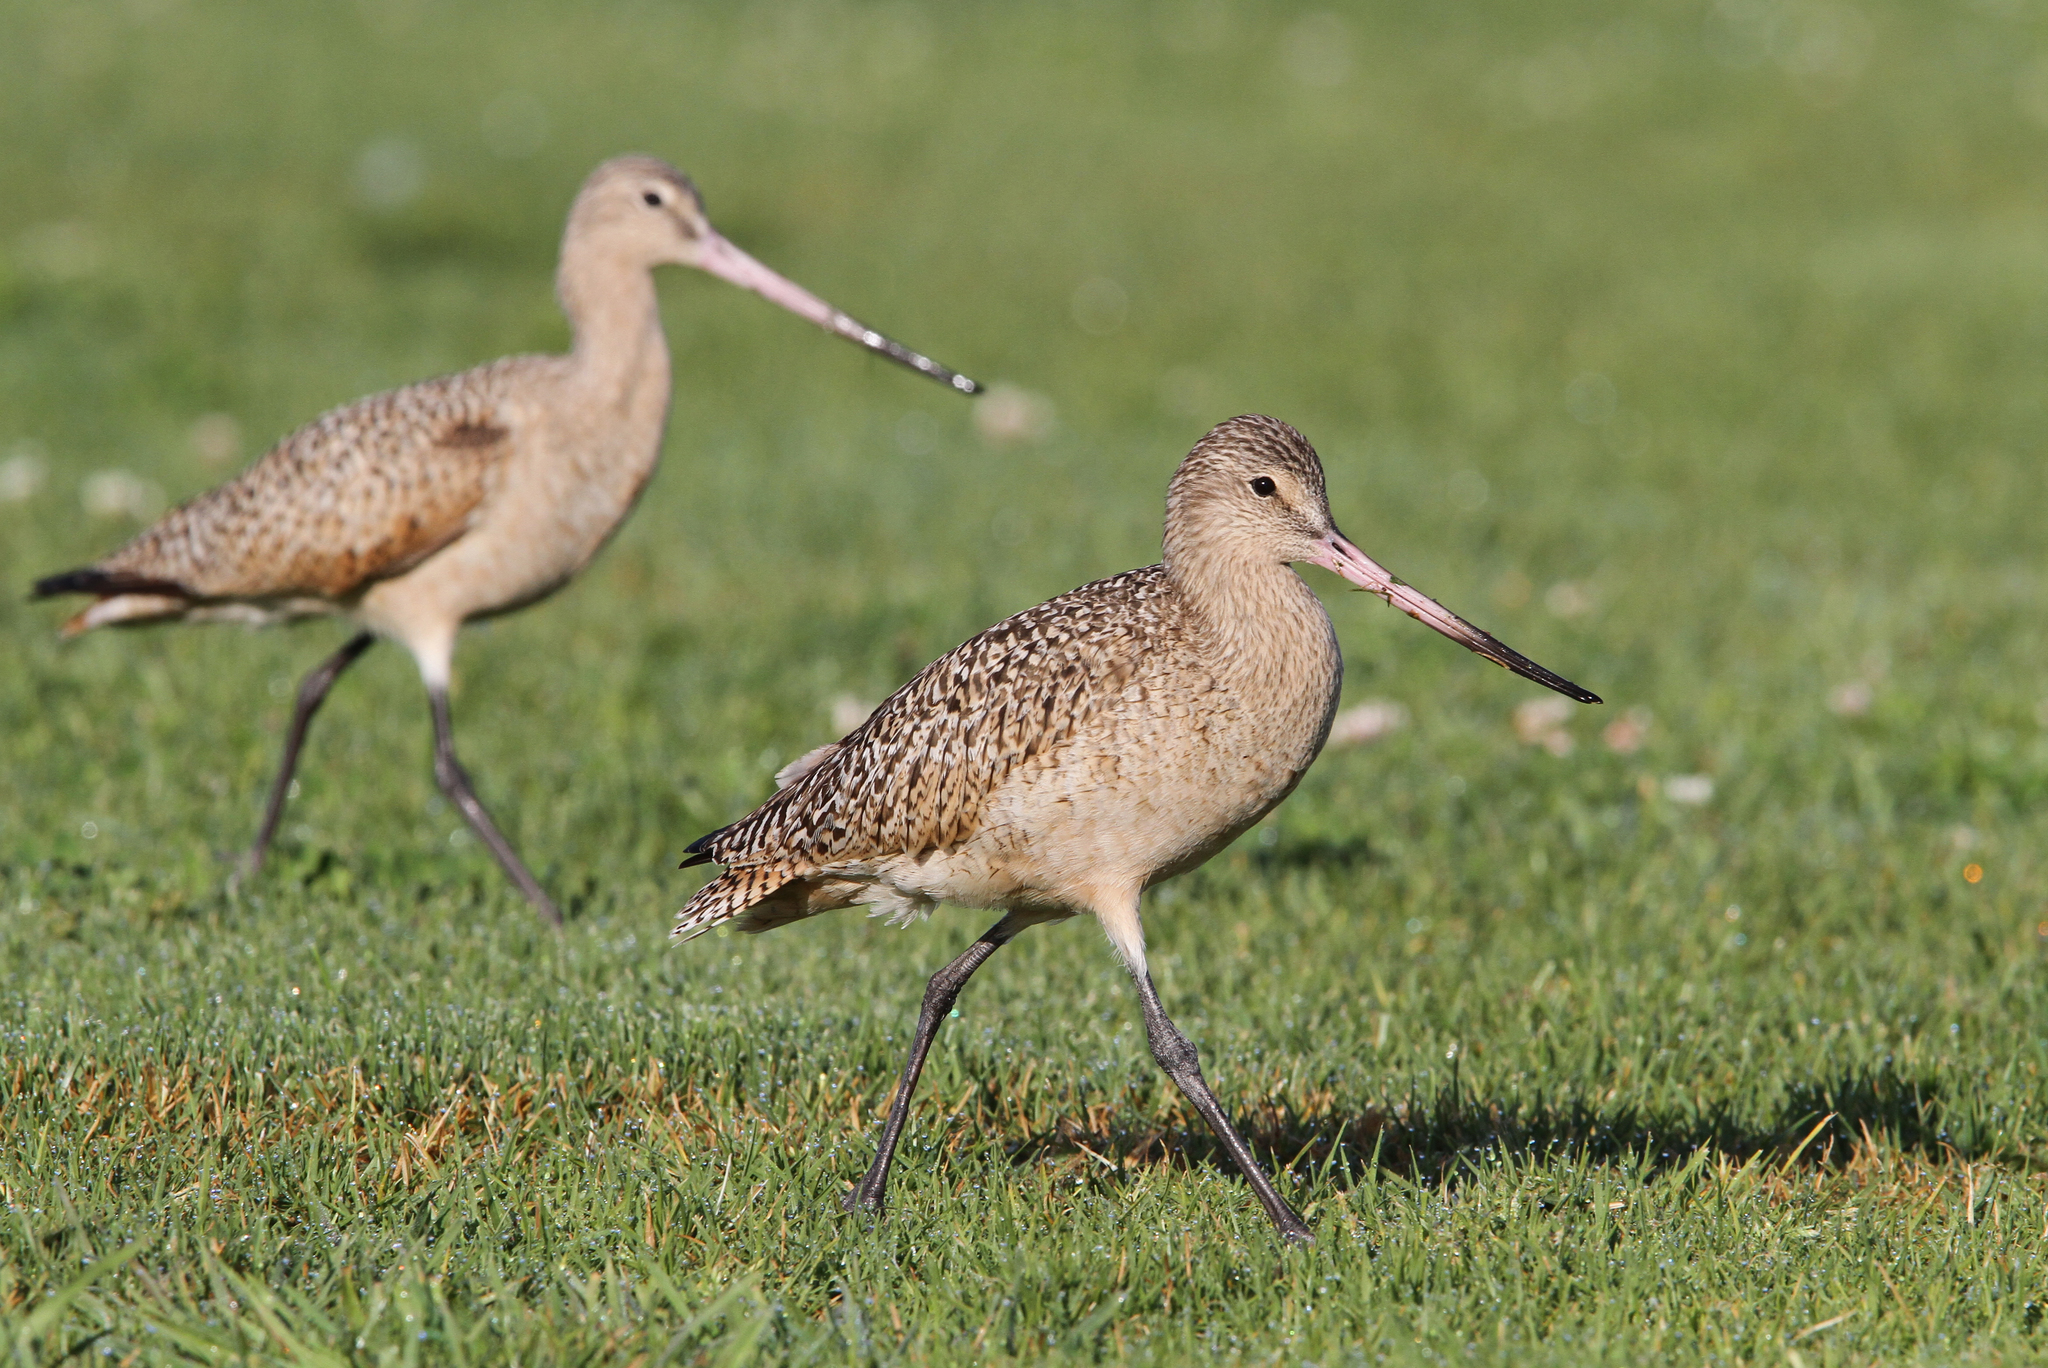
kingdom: Animalia
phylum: Chordata
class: Aves
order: Charadriiformes
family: Scolopacidae
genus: Limosa
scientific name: Limosa fedoa
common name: Marbled godwit
